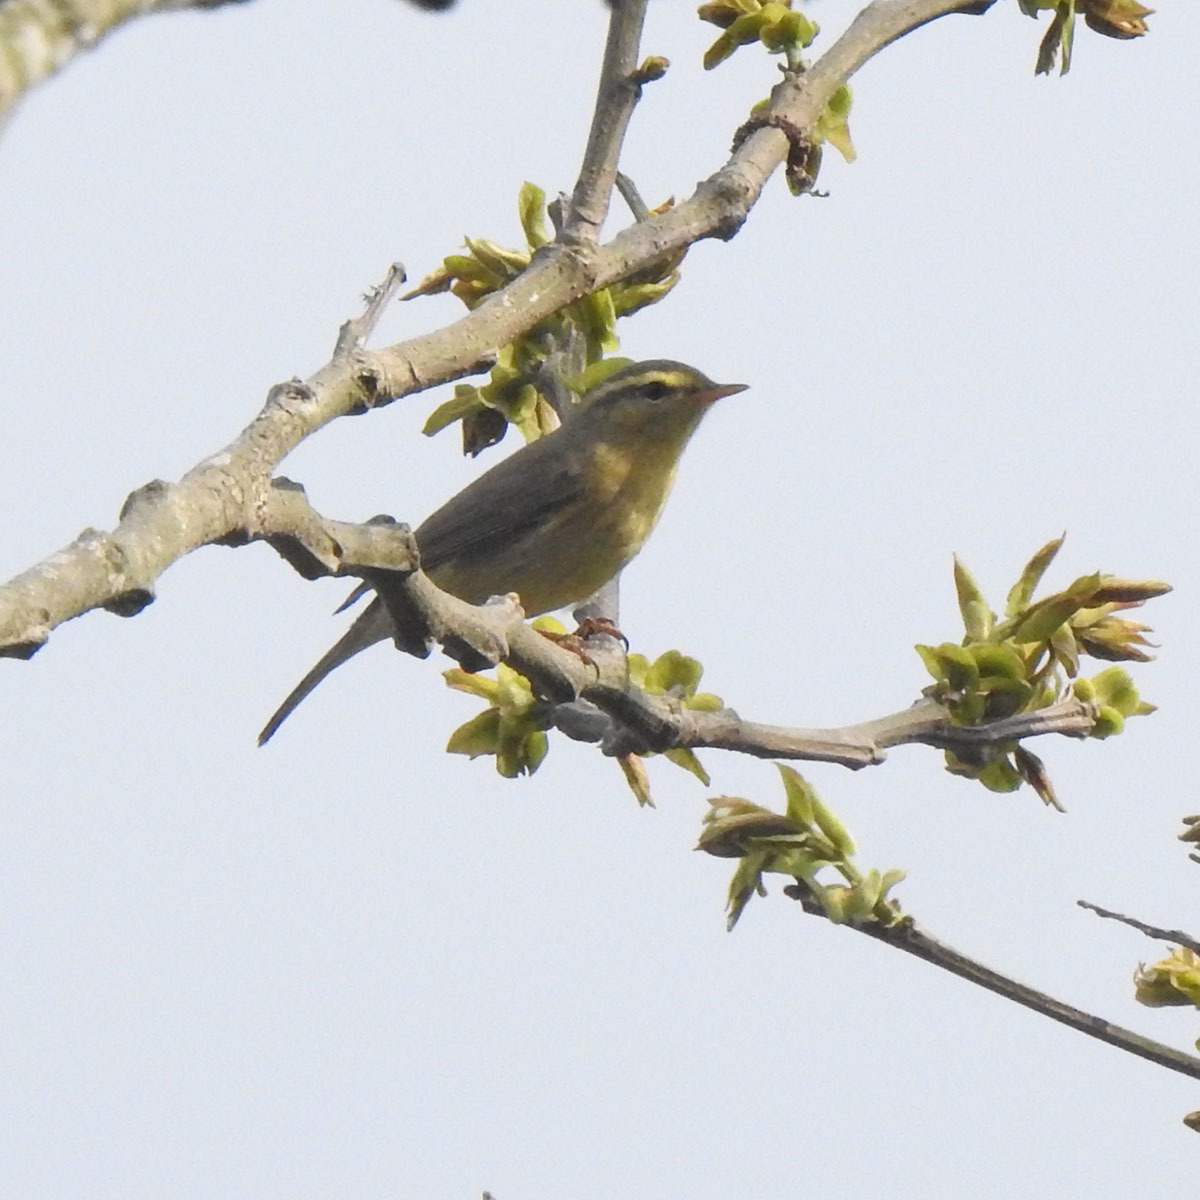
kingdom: Animalia
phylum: Chordata
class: Aves
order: Passeriformes
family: Phylloscopidae
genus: Phylloscopus
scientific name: Phylloscopus affinis
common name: Tickell's leaf warbler
